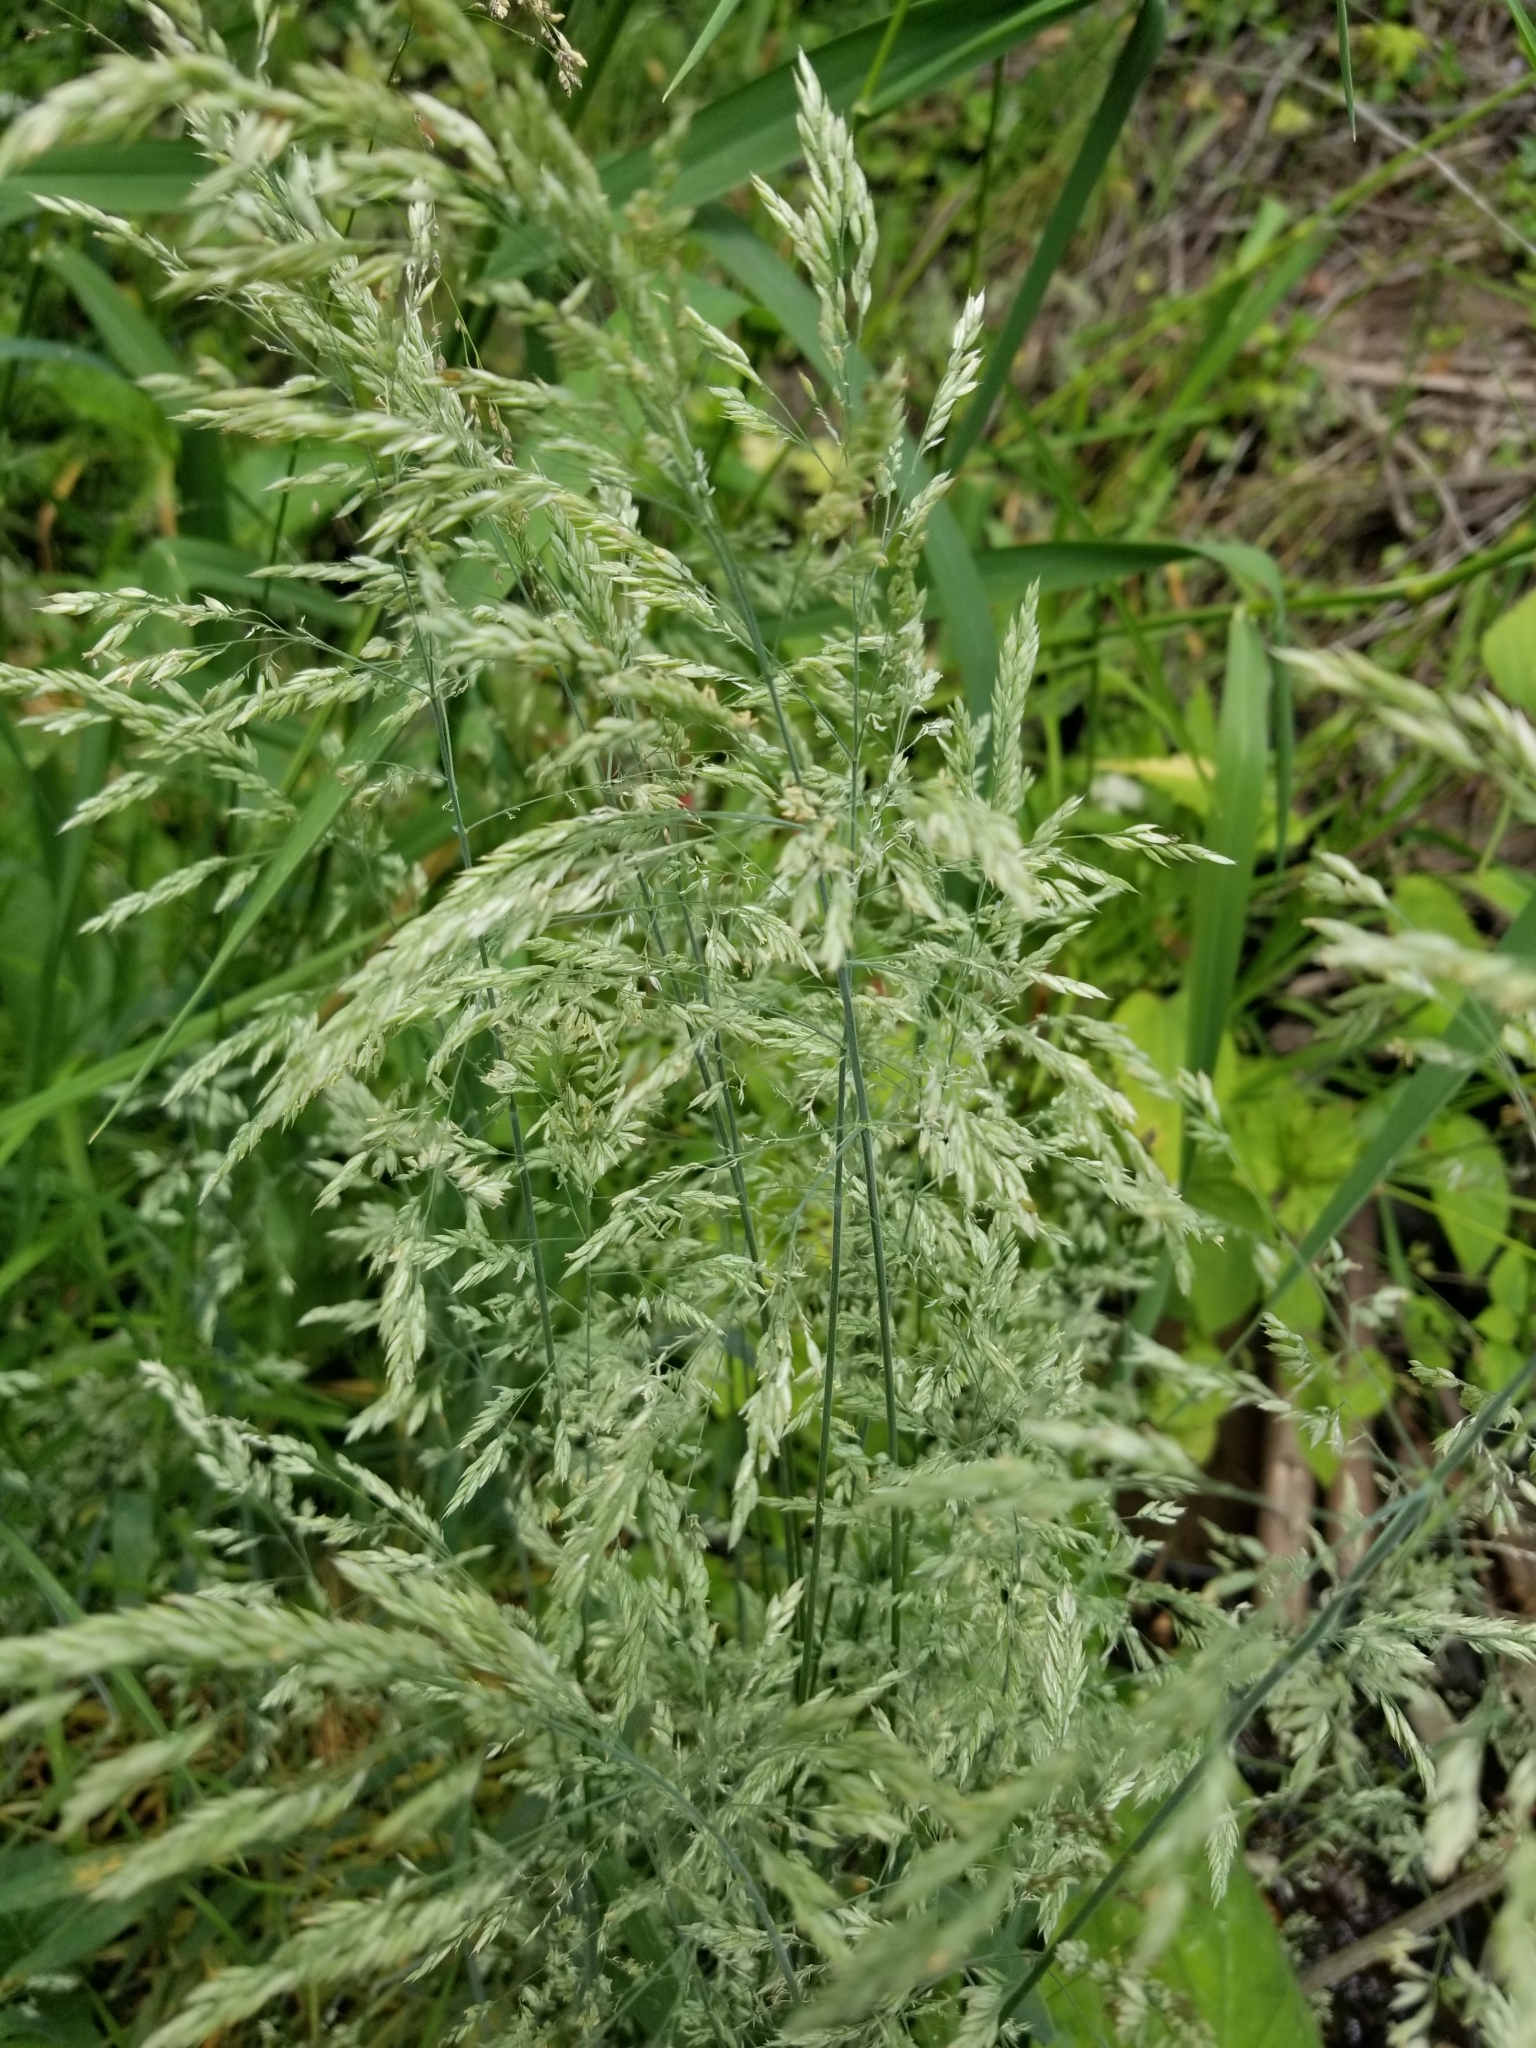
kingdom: Plantae
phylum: Tracheophyta
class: Liliopsida
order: Poales
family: Poaceae
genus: Holcus
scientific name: Holcus lanatus
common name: Yorkshire-fog
